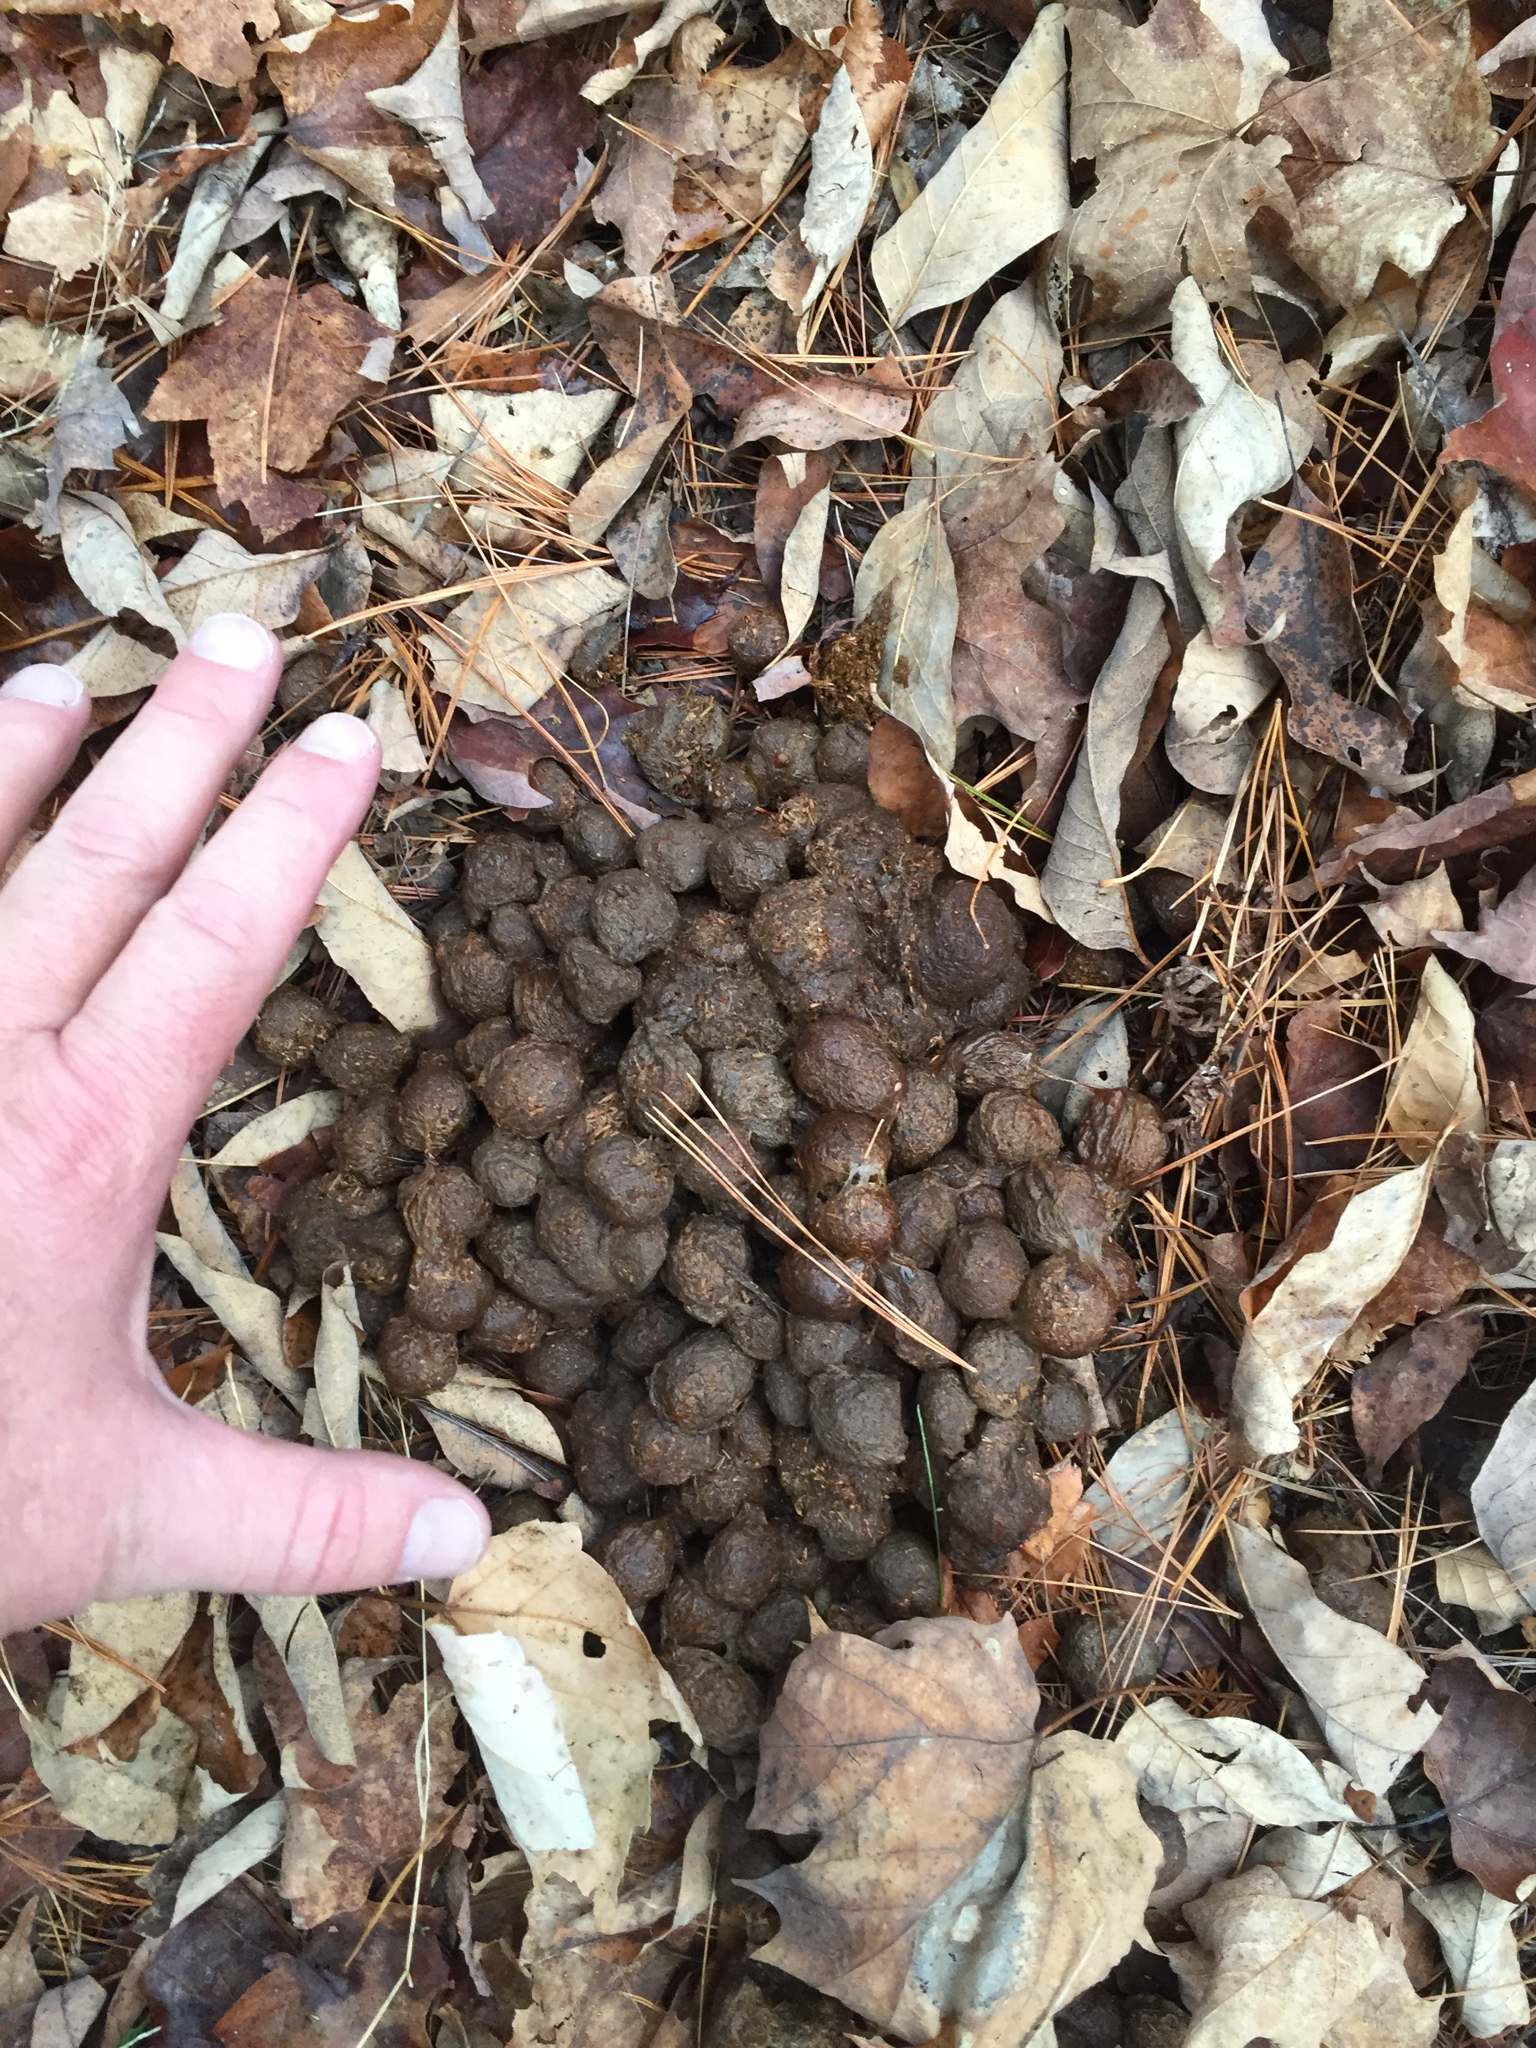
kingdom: Animalia
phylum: Chordata
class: Mammalia
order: Artiodactyla
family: Cervidae
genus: Alces
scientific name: Alces alces
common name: Moose
